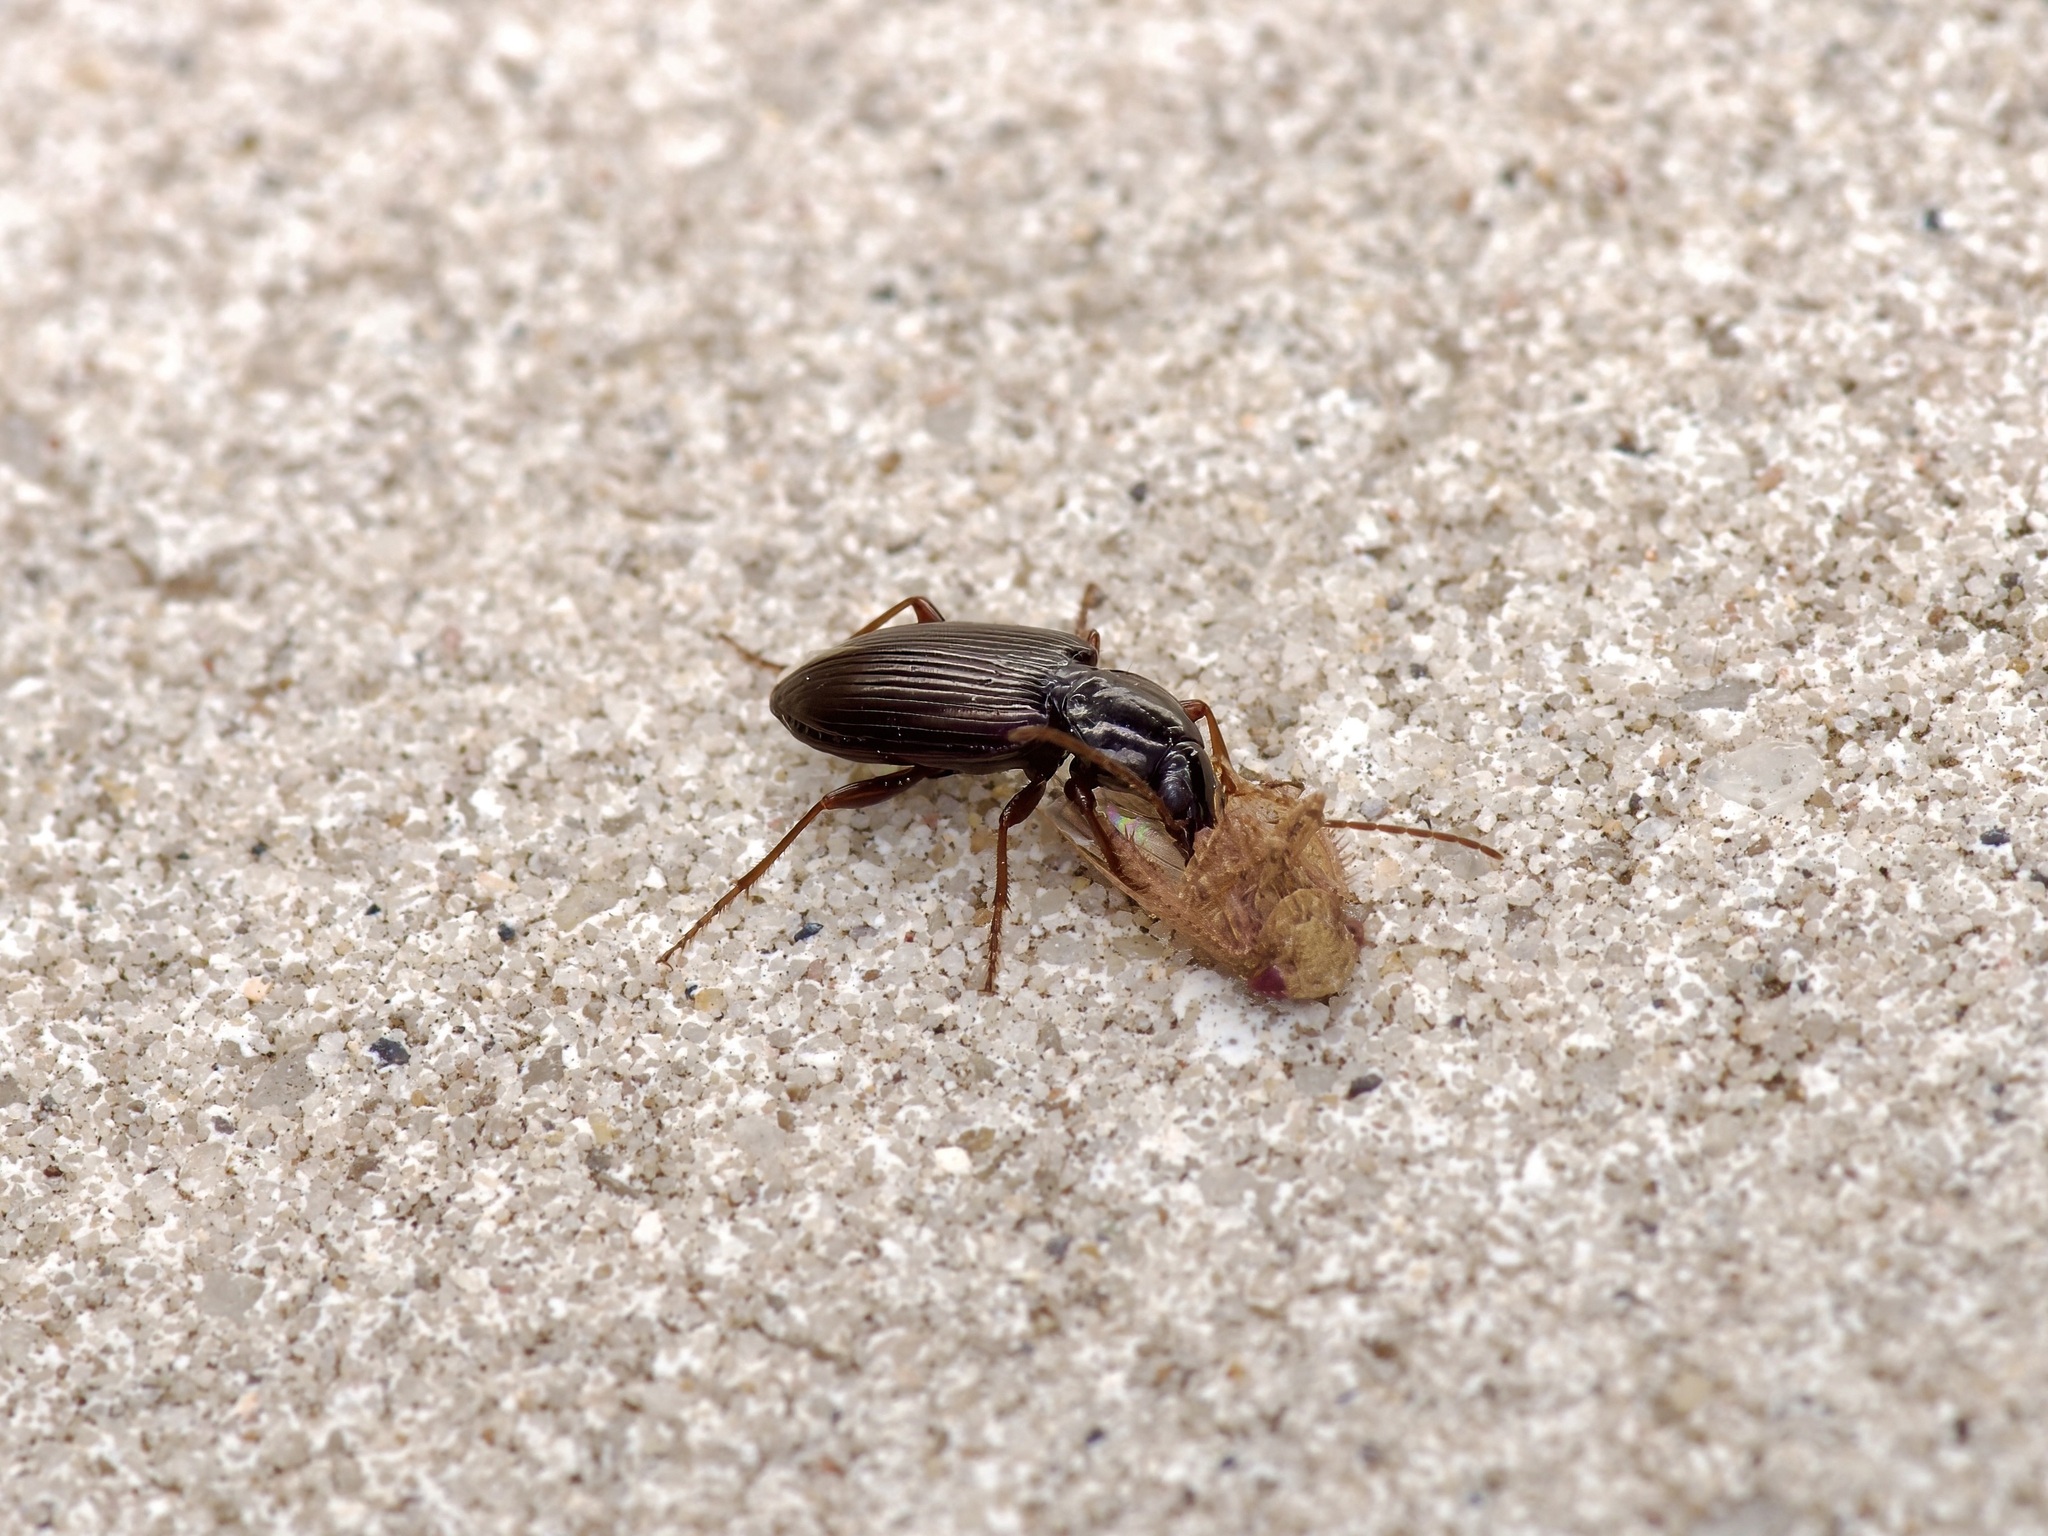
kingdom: Animalia
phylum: Arthropoda
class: Insecta
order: Coleoptera
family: Carabidae
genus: Agonum
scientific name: Agonum punctiforme
